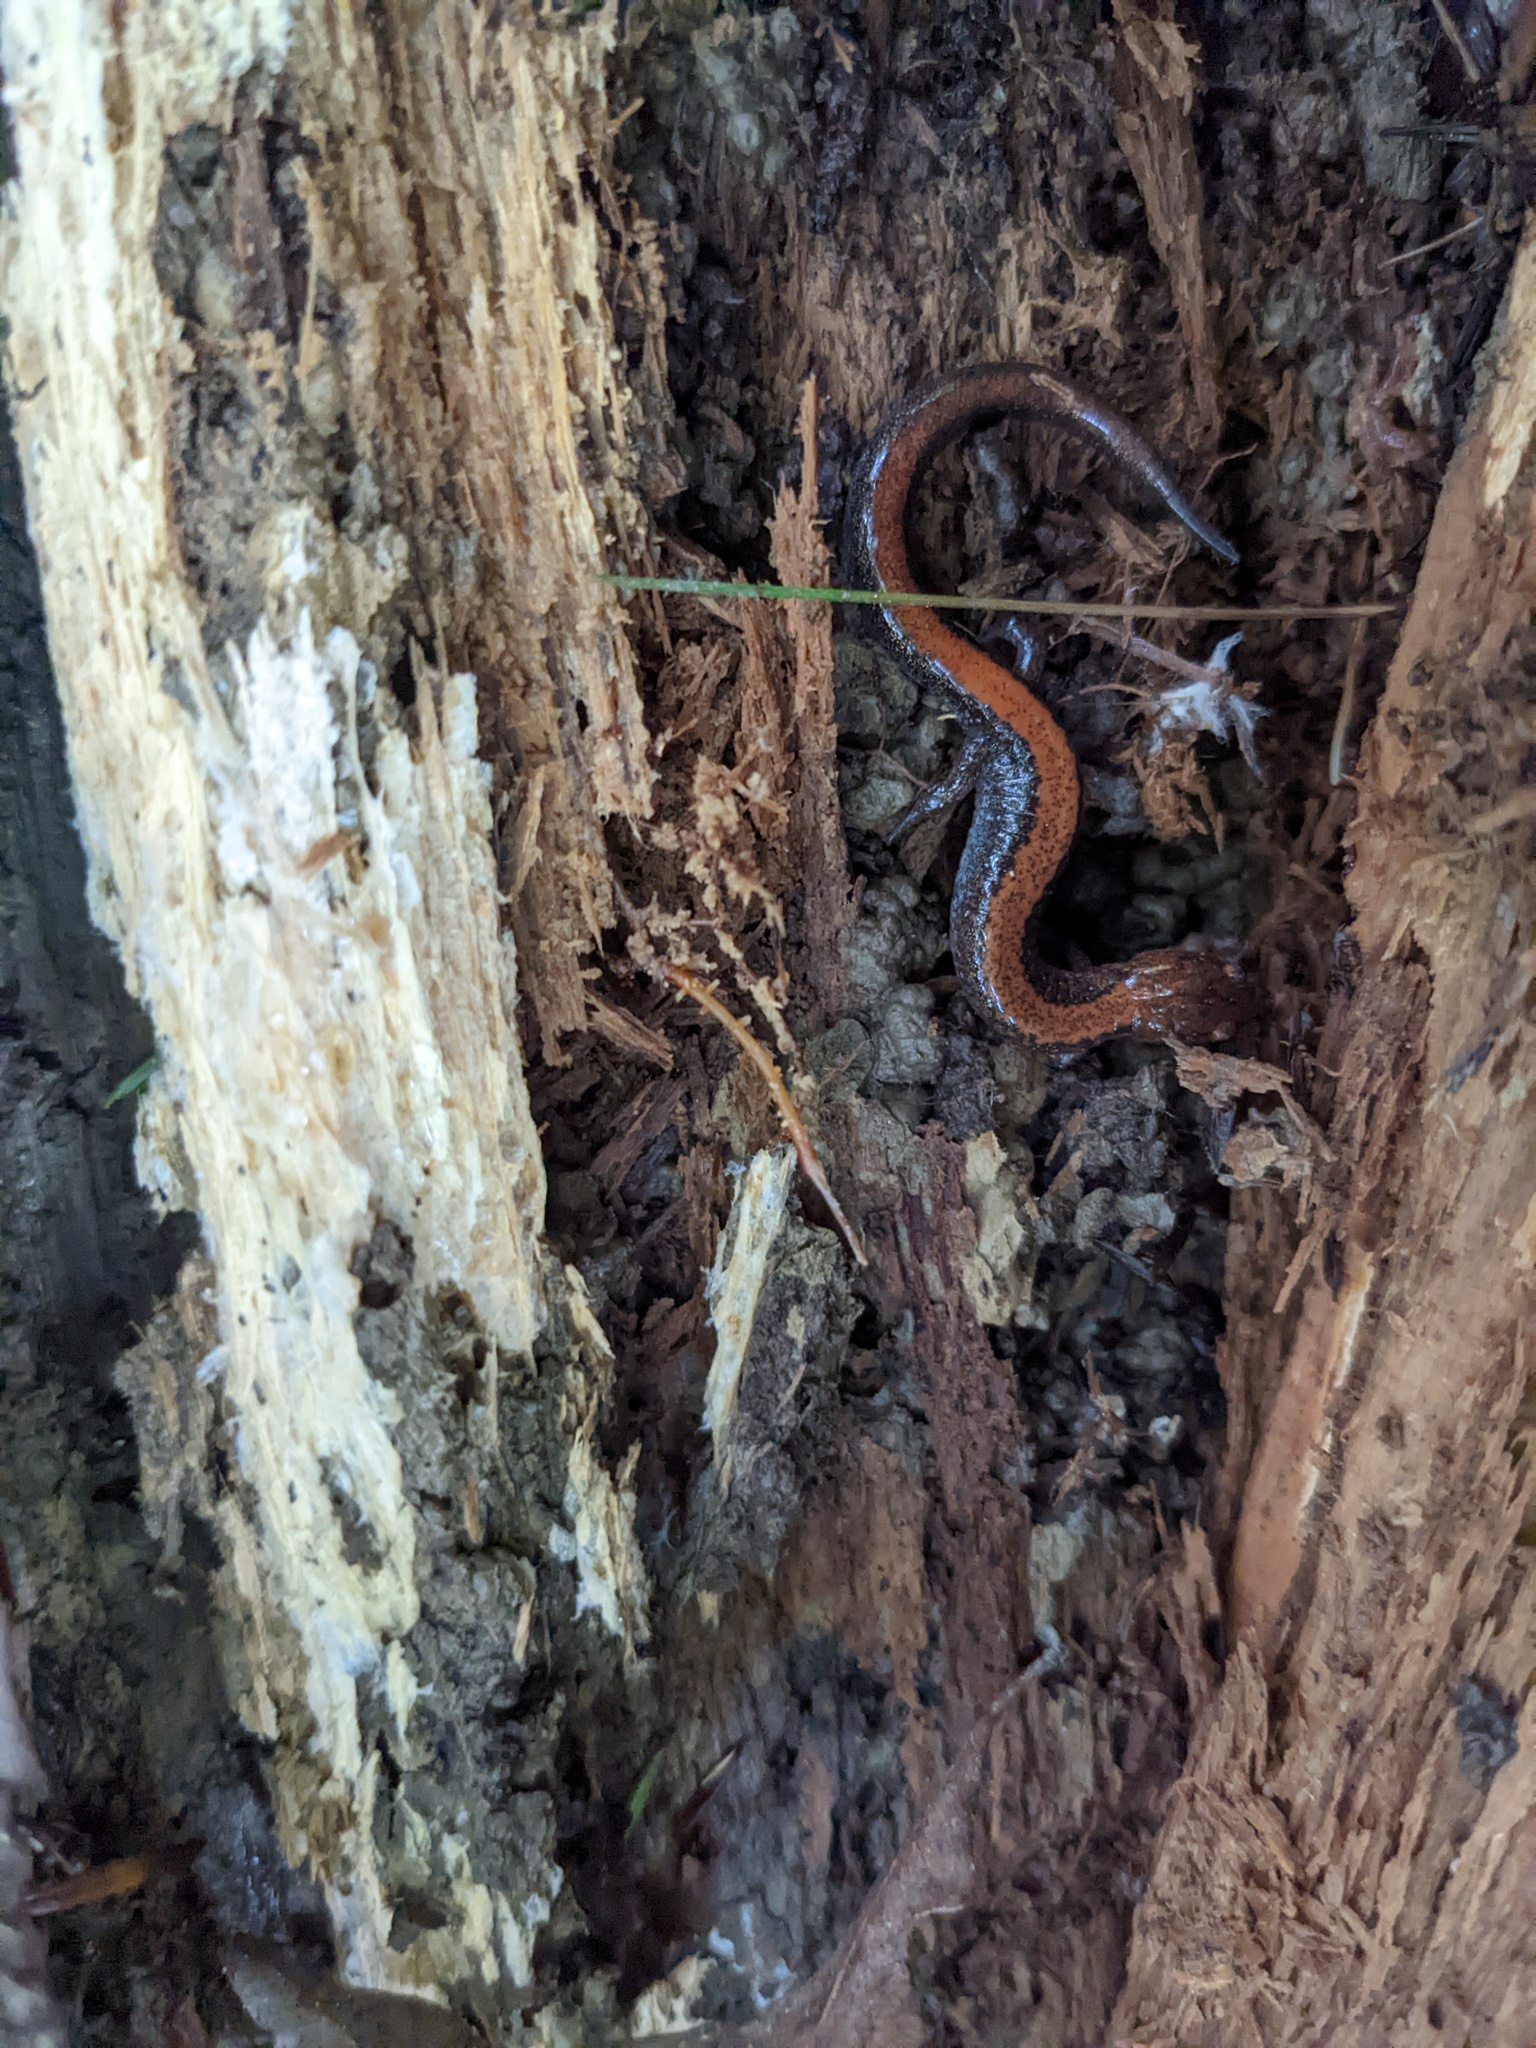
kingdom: Animalia
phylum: Chordata
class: Amphibia
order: Caudata
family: Plethodontidae
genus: Plethodon
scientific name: Plethodon cinereus
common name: Redback salamander
